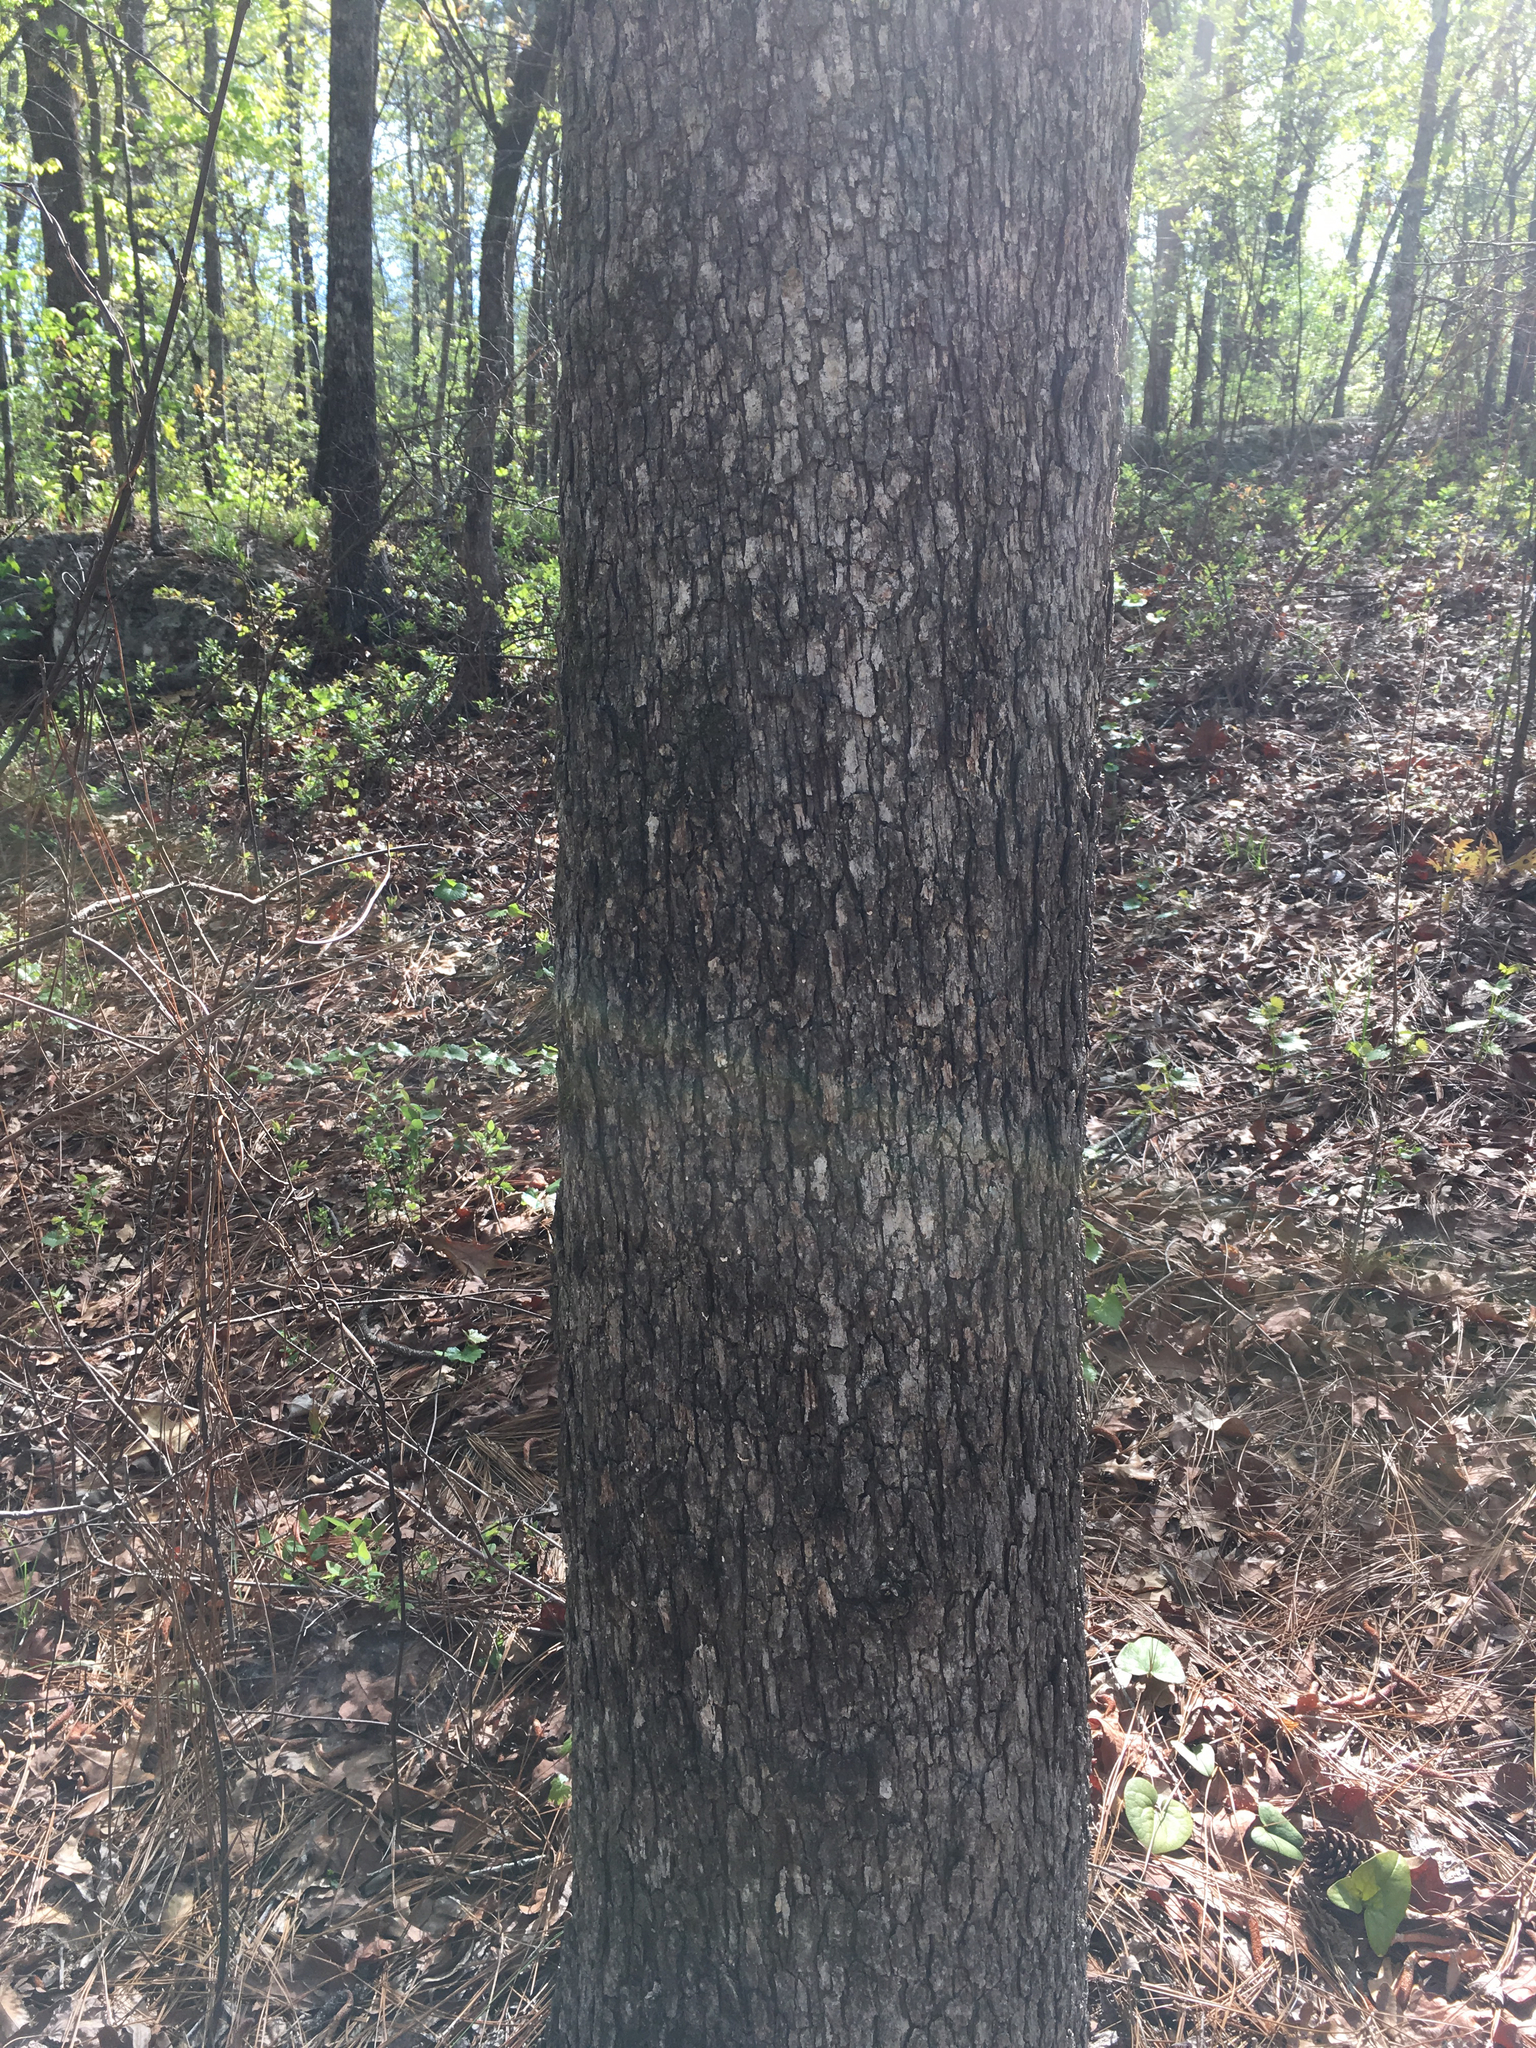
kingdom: Plantae
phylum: Tracheophyta
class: Magnoliopsida
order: Fagales
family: Fagaceae
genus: Quercus
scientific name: Quercus margaretiae
